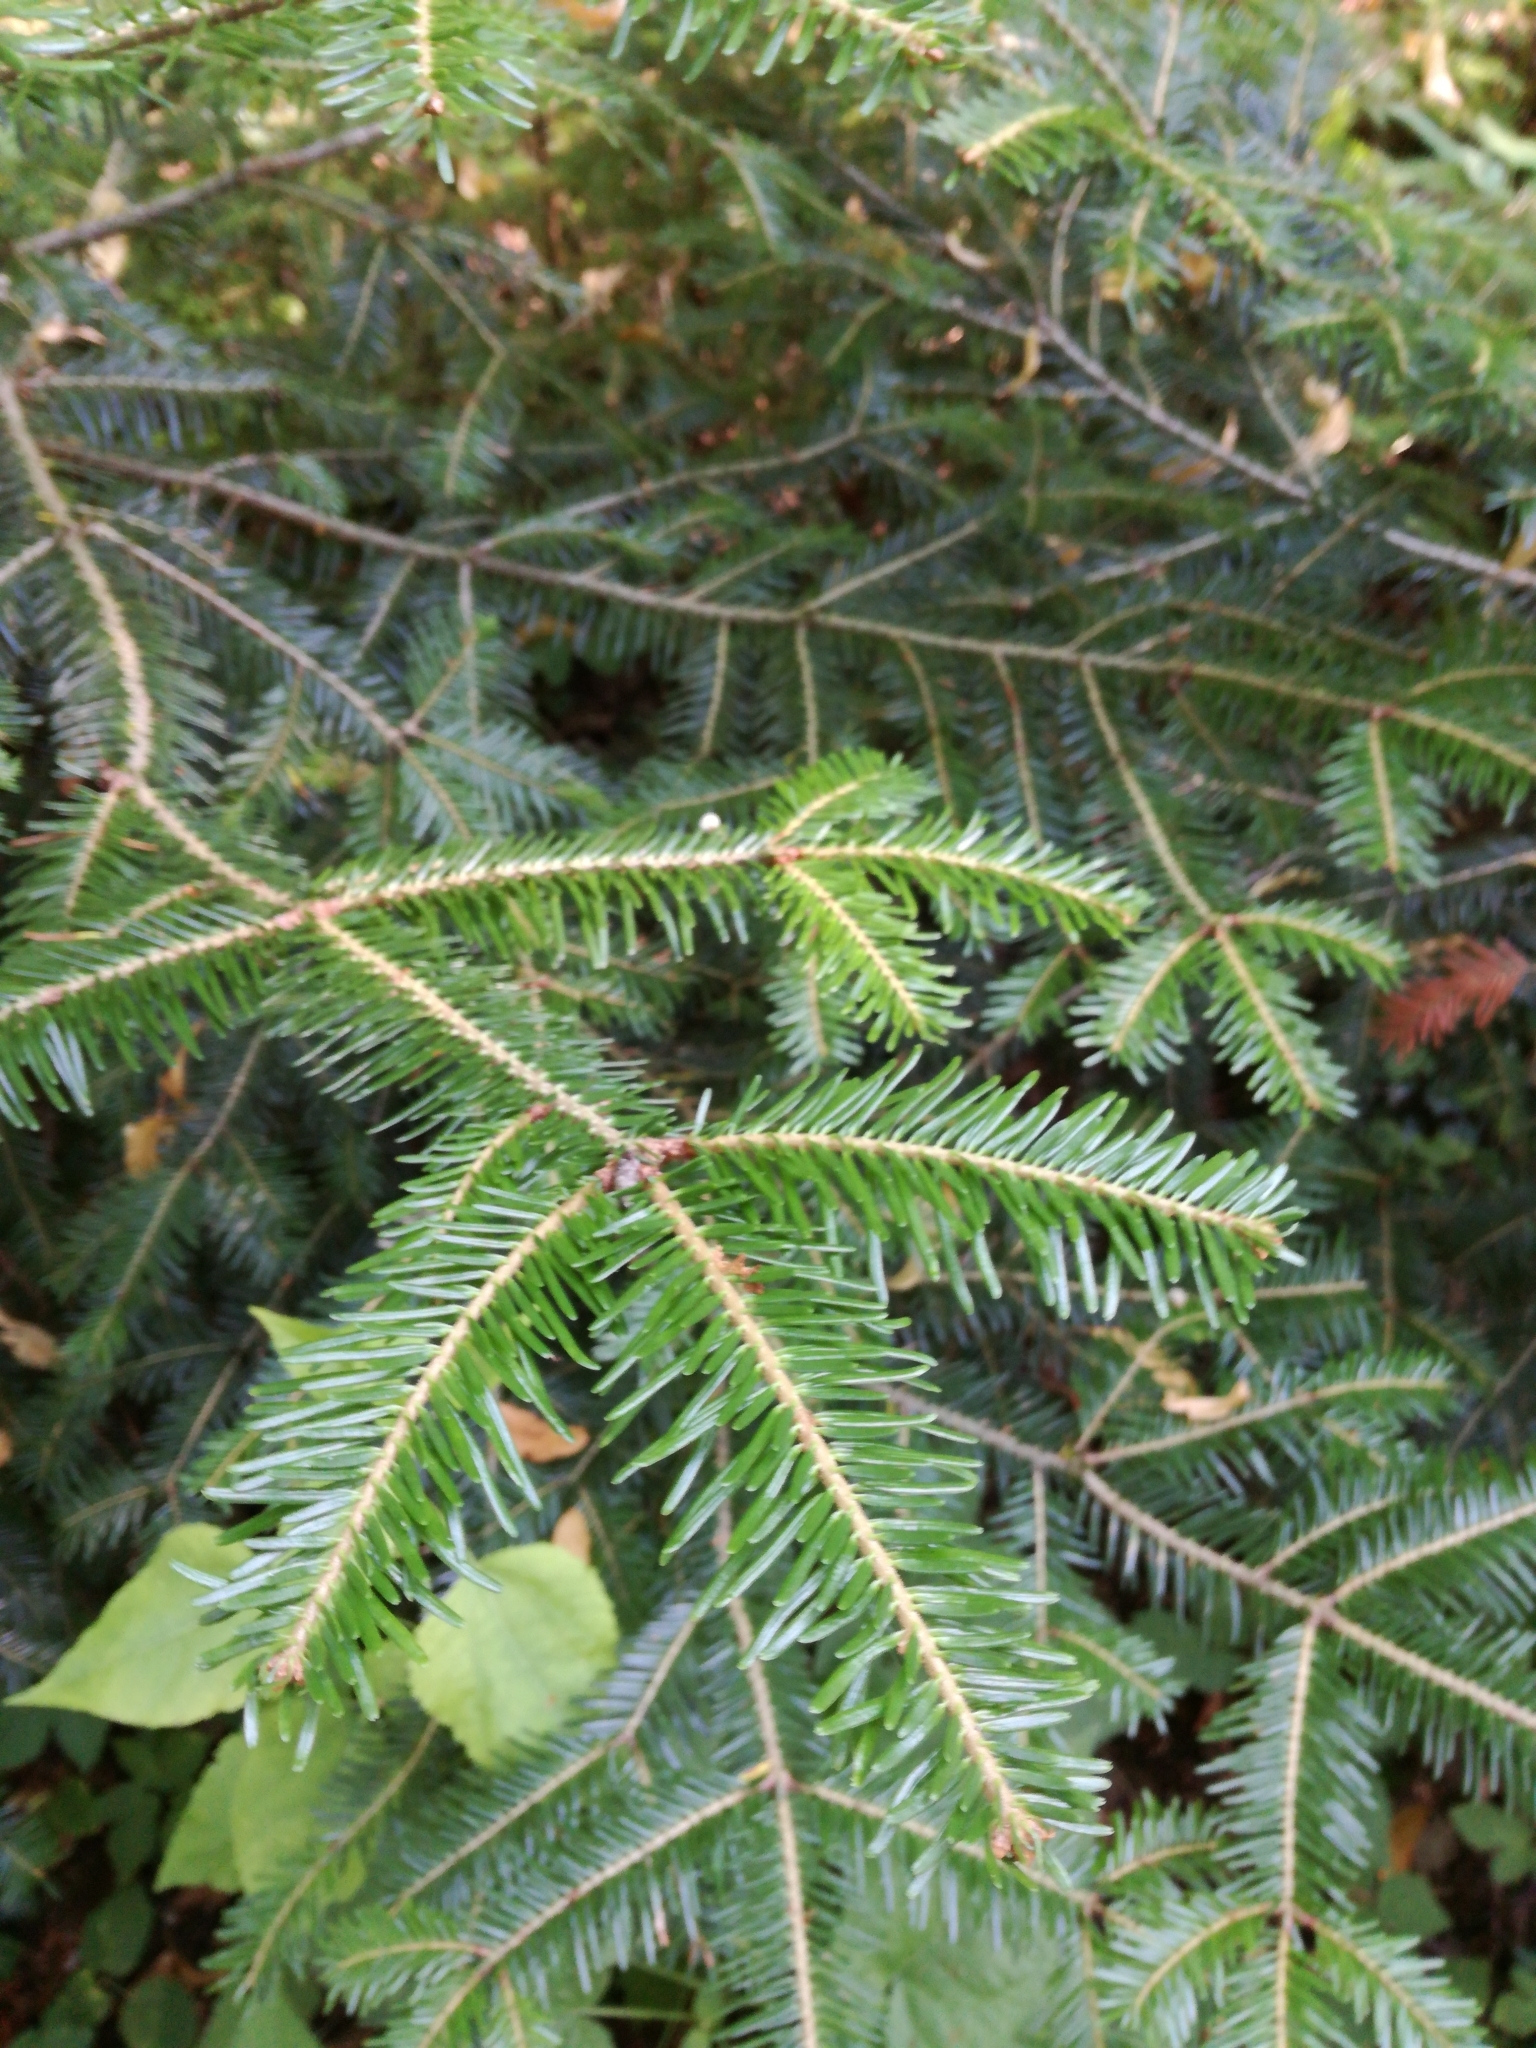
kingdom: Plantae
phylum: Tracheophyta
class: Pinopsida
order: Pinales
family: Pinaceae
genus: Abies
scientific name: Abies alba
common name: Silver fir
